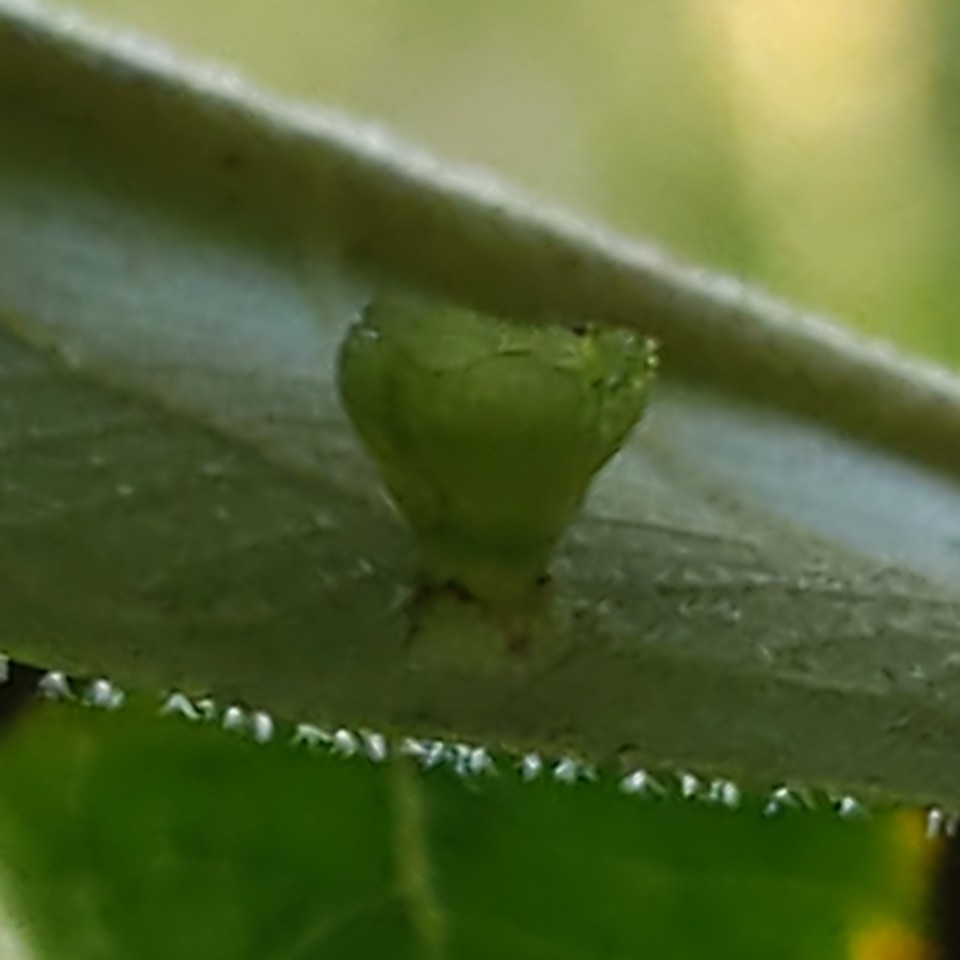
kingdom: Animalia
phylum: Arthropoda
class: Insecta
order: Diptera
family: Cecidomyiidae
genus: Caryomyia
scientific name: Caryomyia flaticrustum
